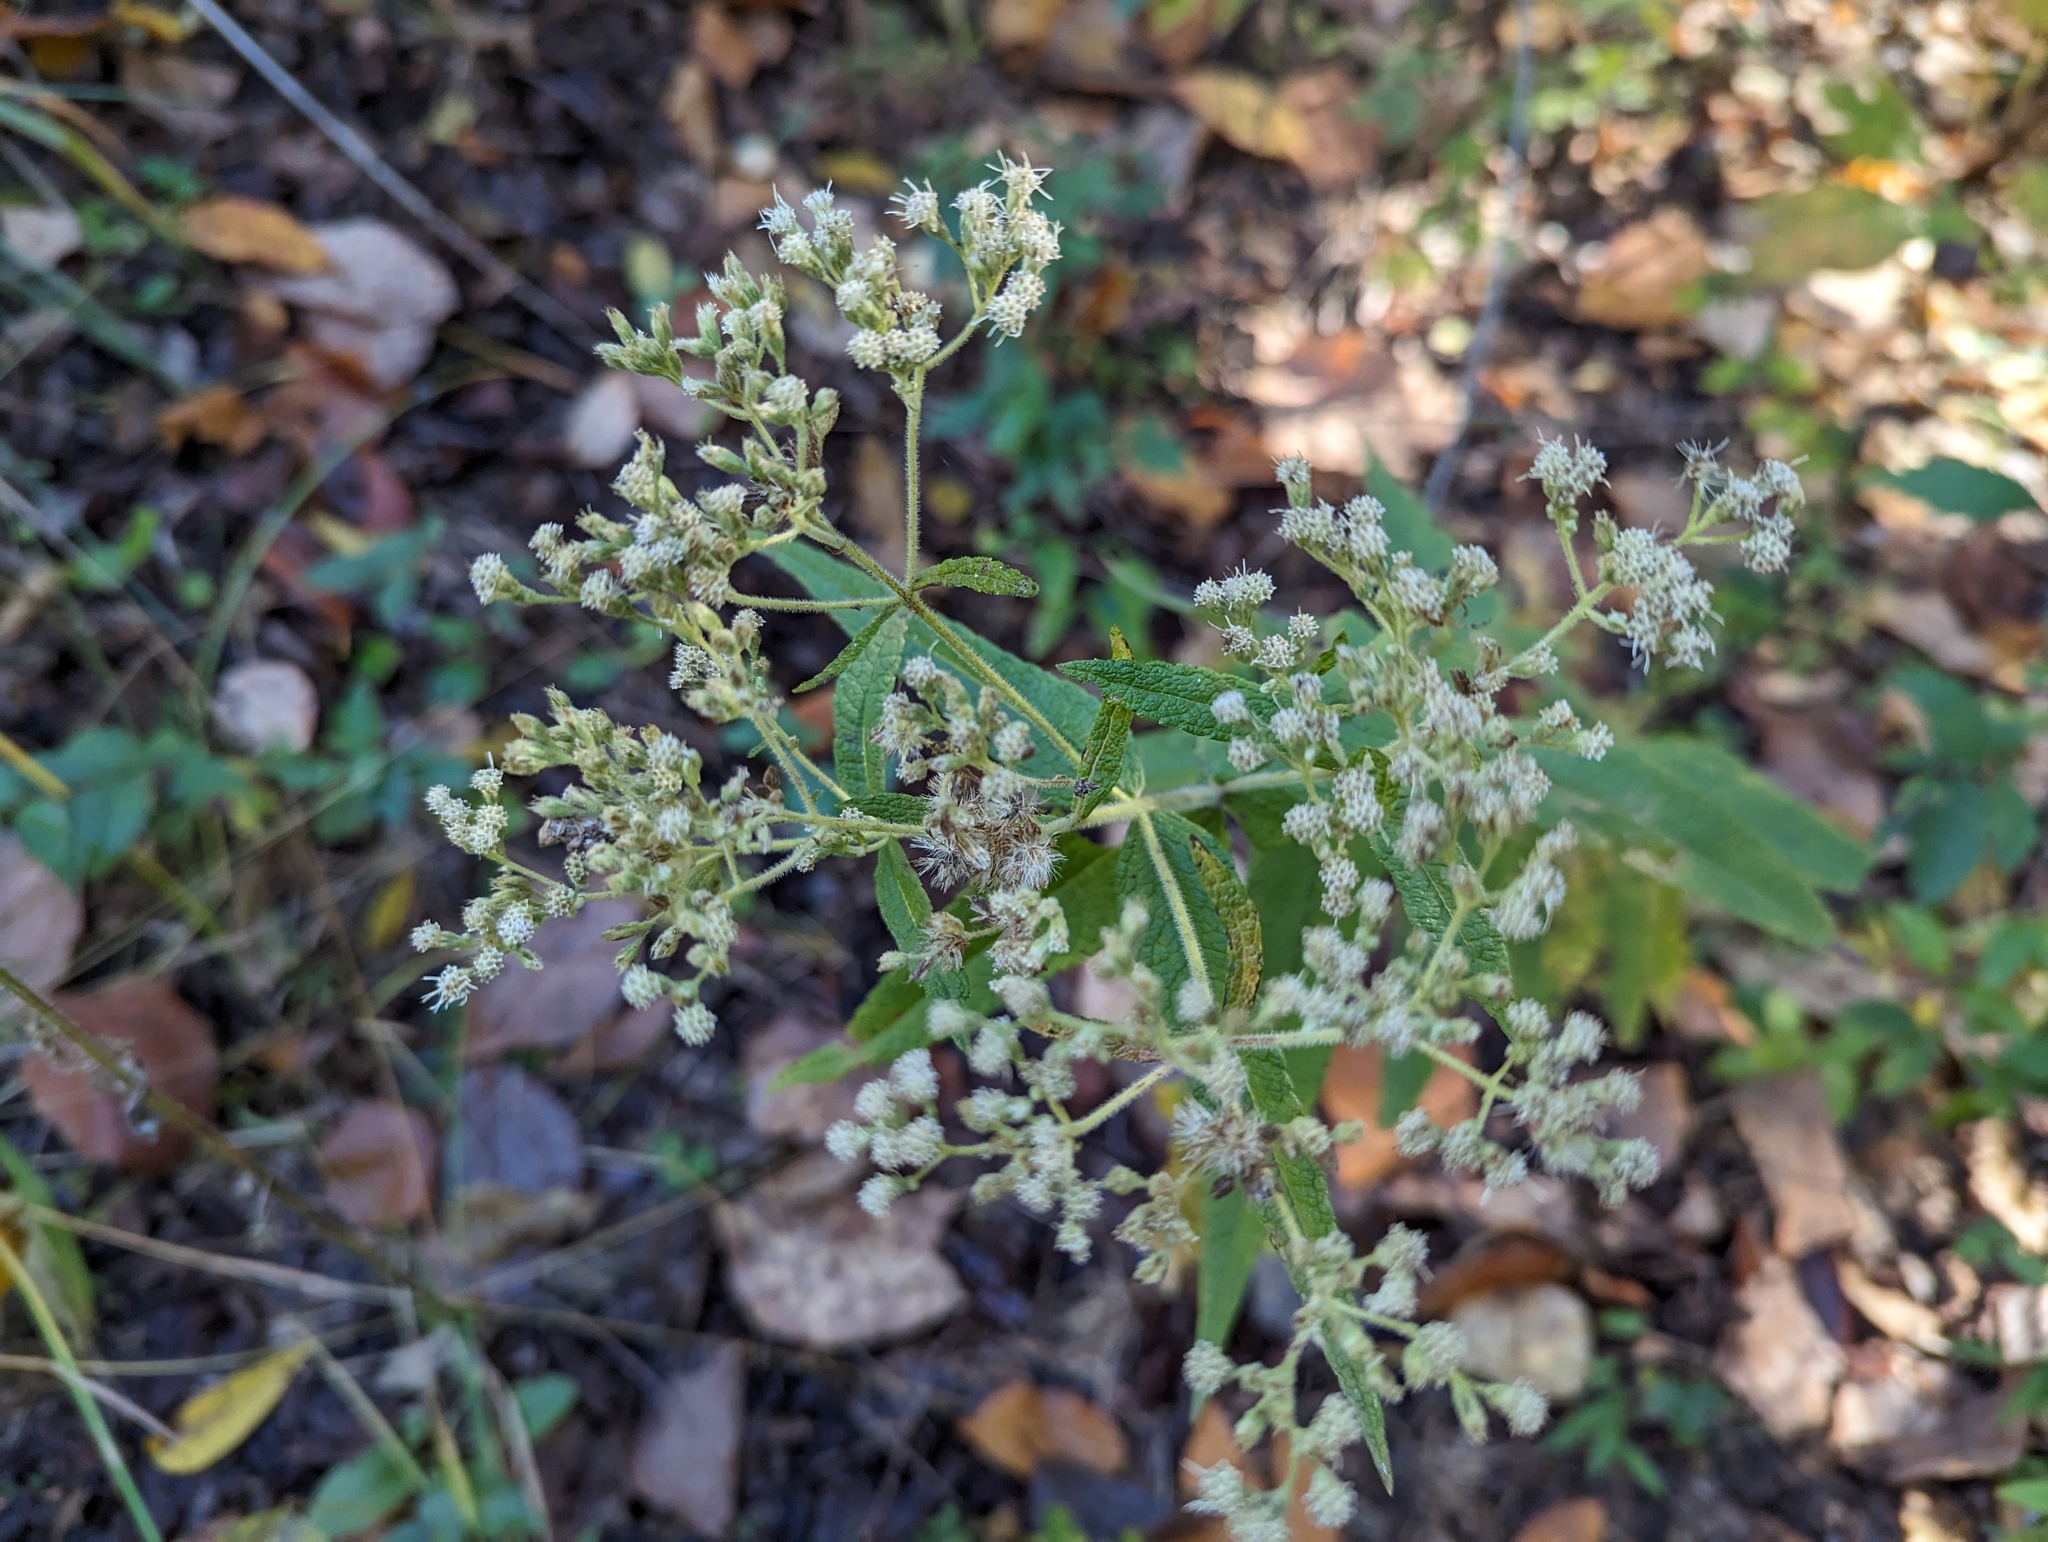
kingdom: Plantae
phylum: Tracheophyta
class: Magnoliopsida
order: Asterales
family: Asteraceae
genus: Eupatorium
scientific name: Eupatorium perfoliatum
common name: Boneset
